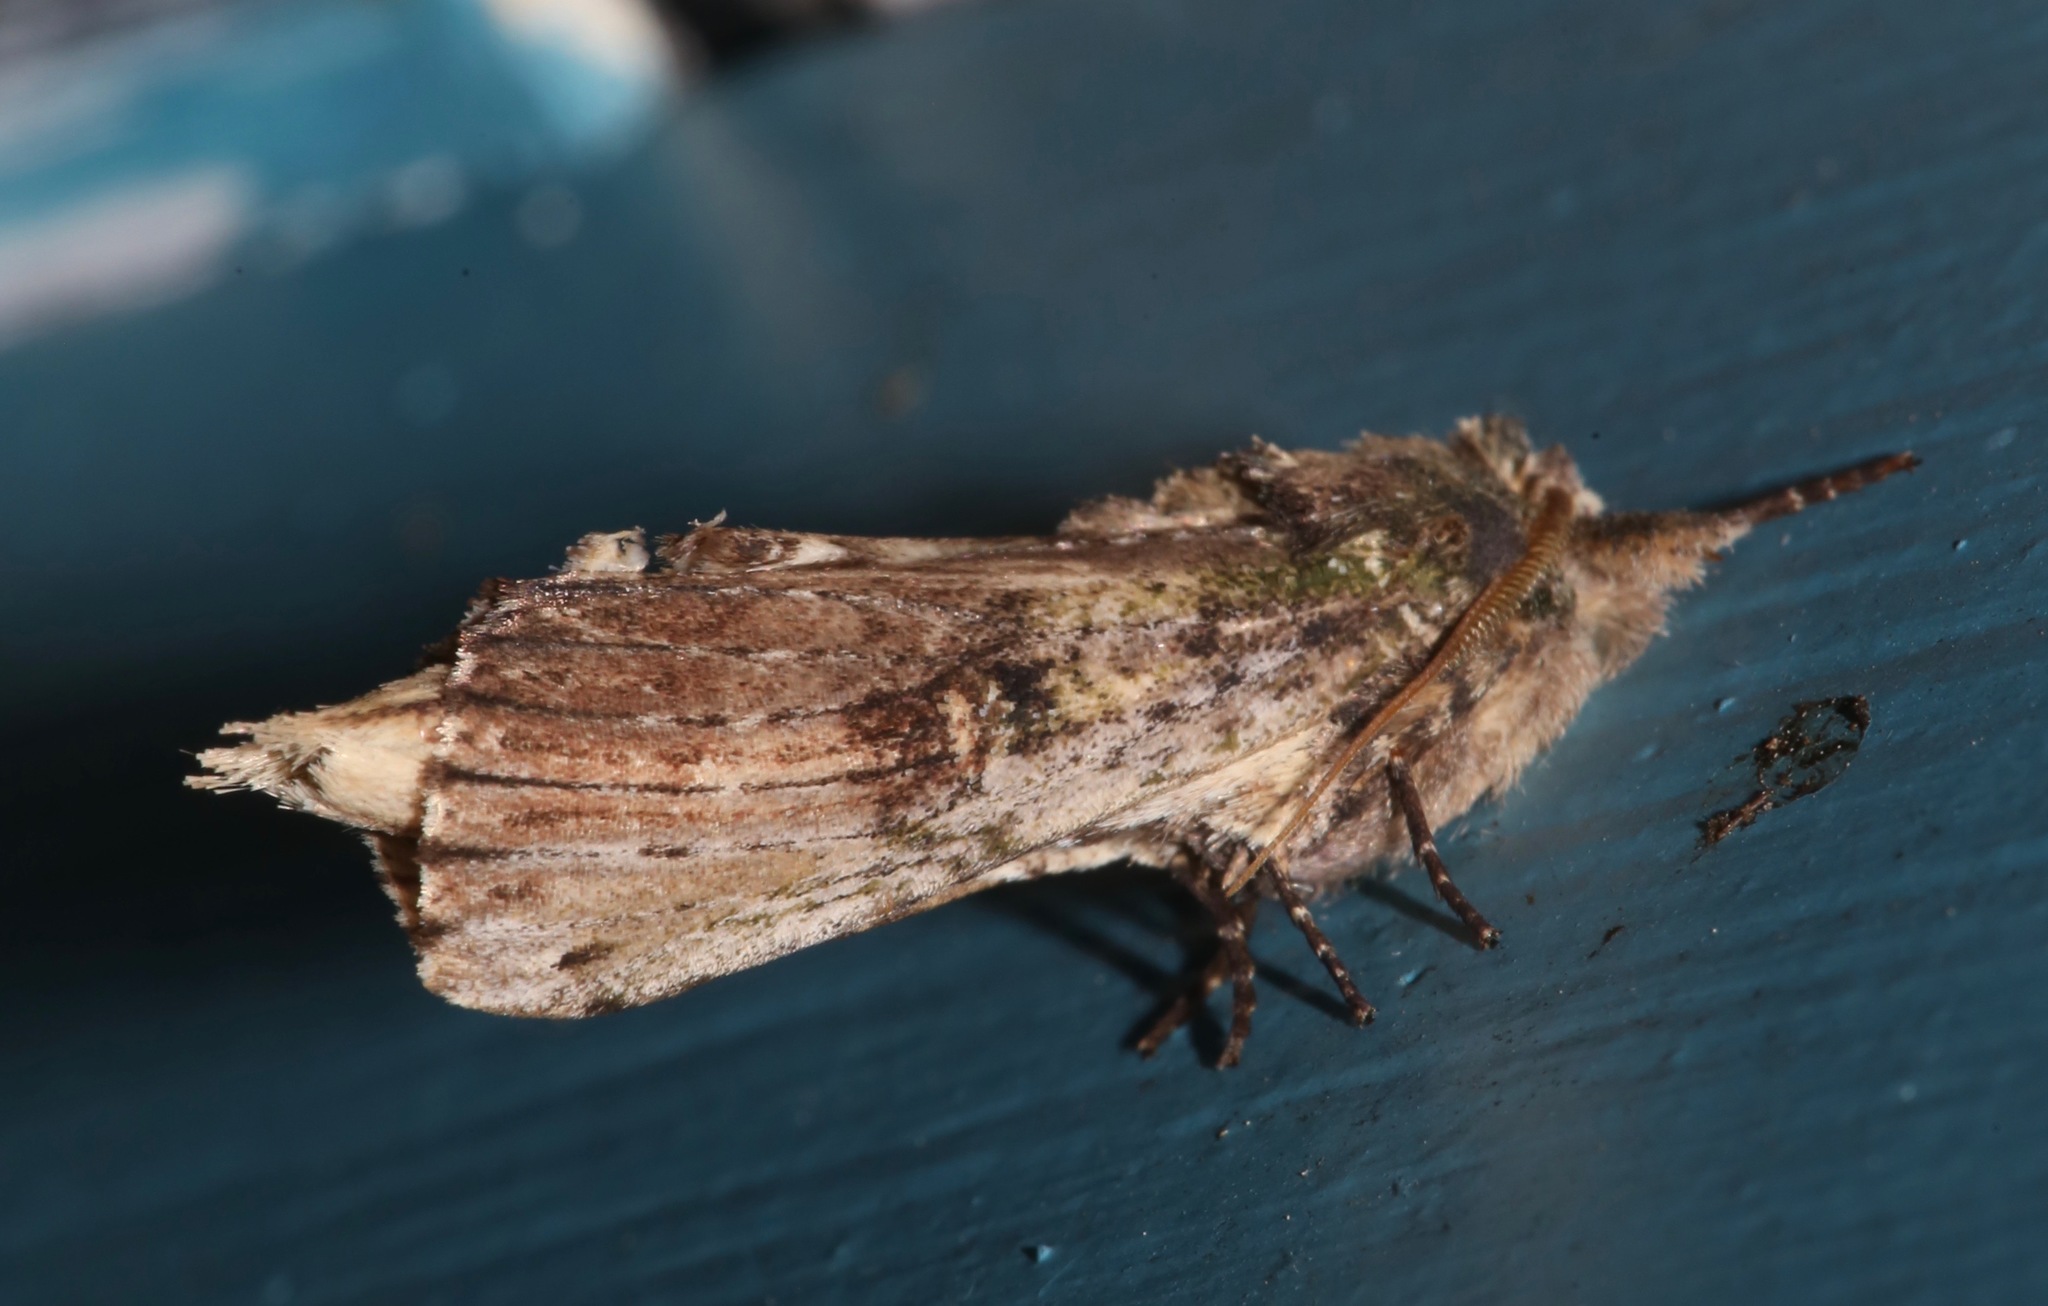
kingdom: Animalia
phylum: Arthropoda
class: Insecta
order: Lepidoptera
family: Notodontidae
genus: Schizura
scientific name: Schizura ipomaeae
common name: Morning-glory prominent
